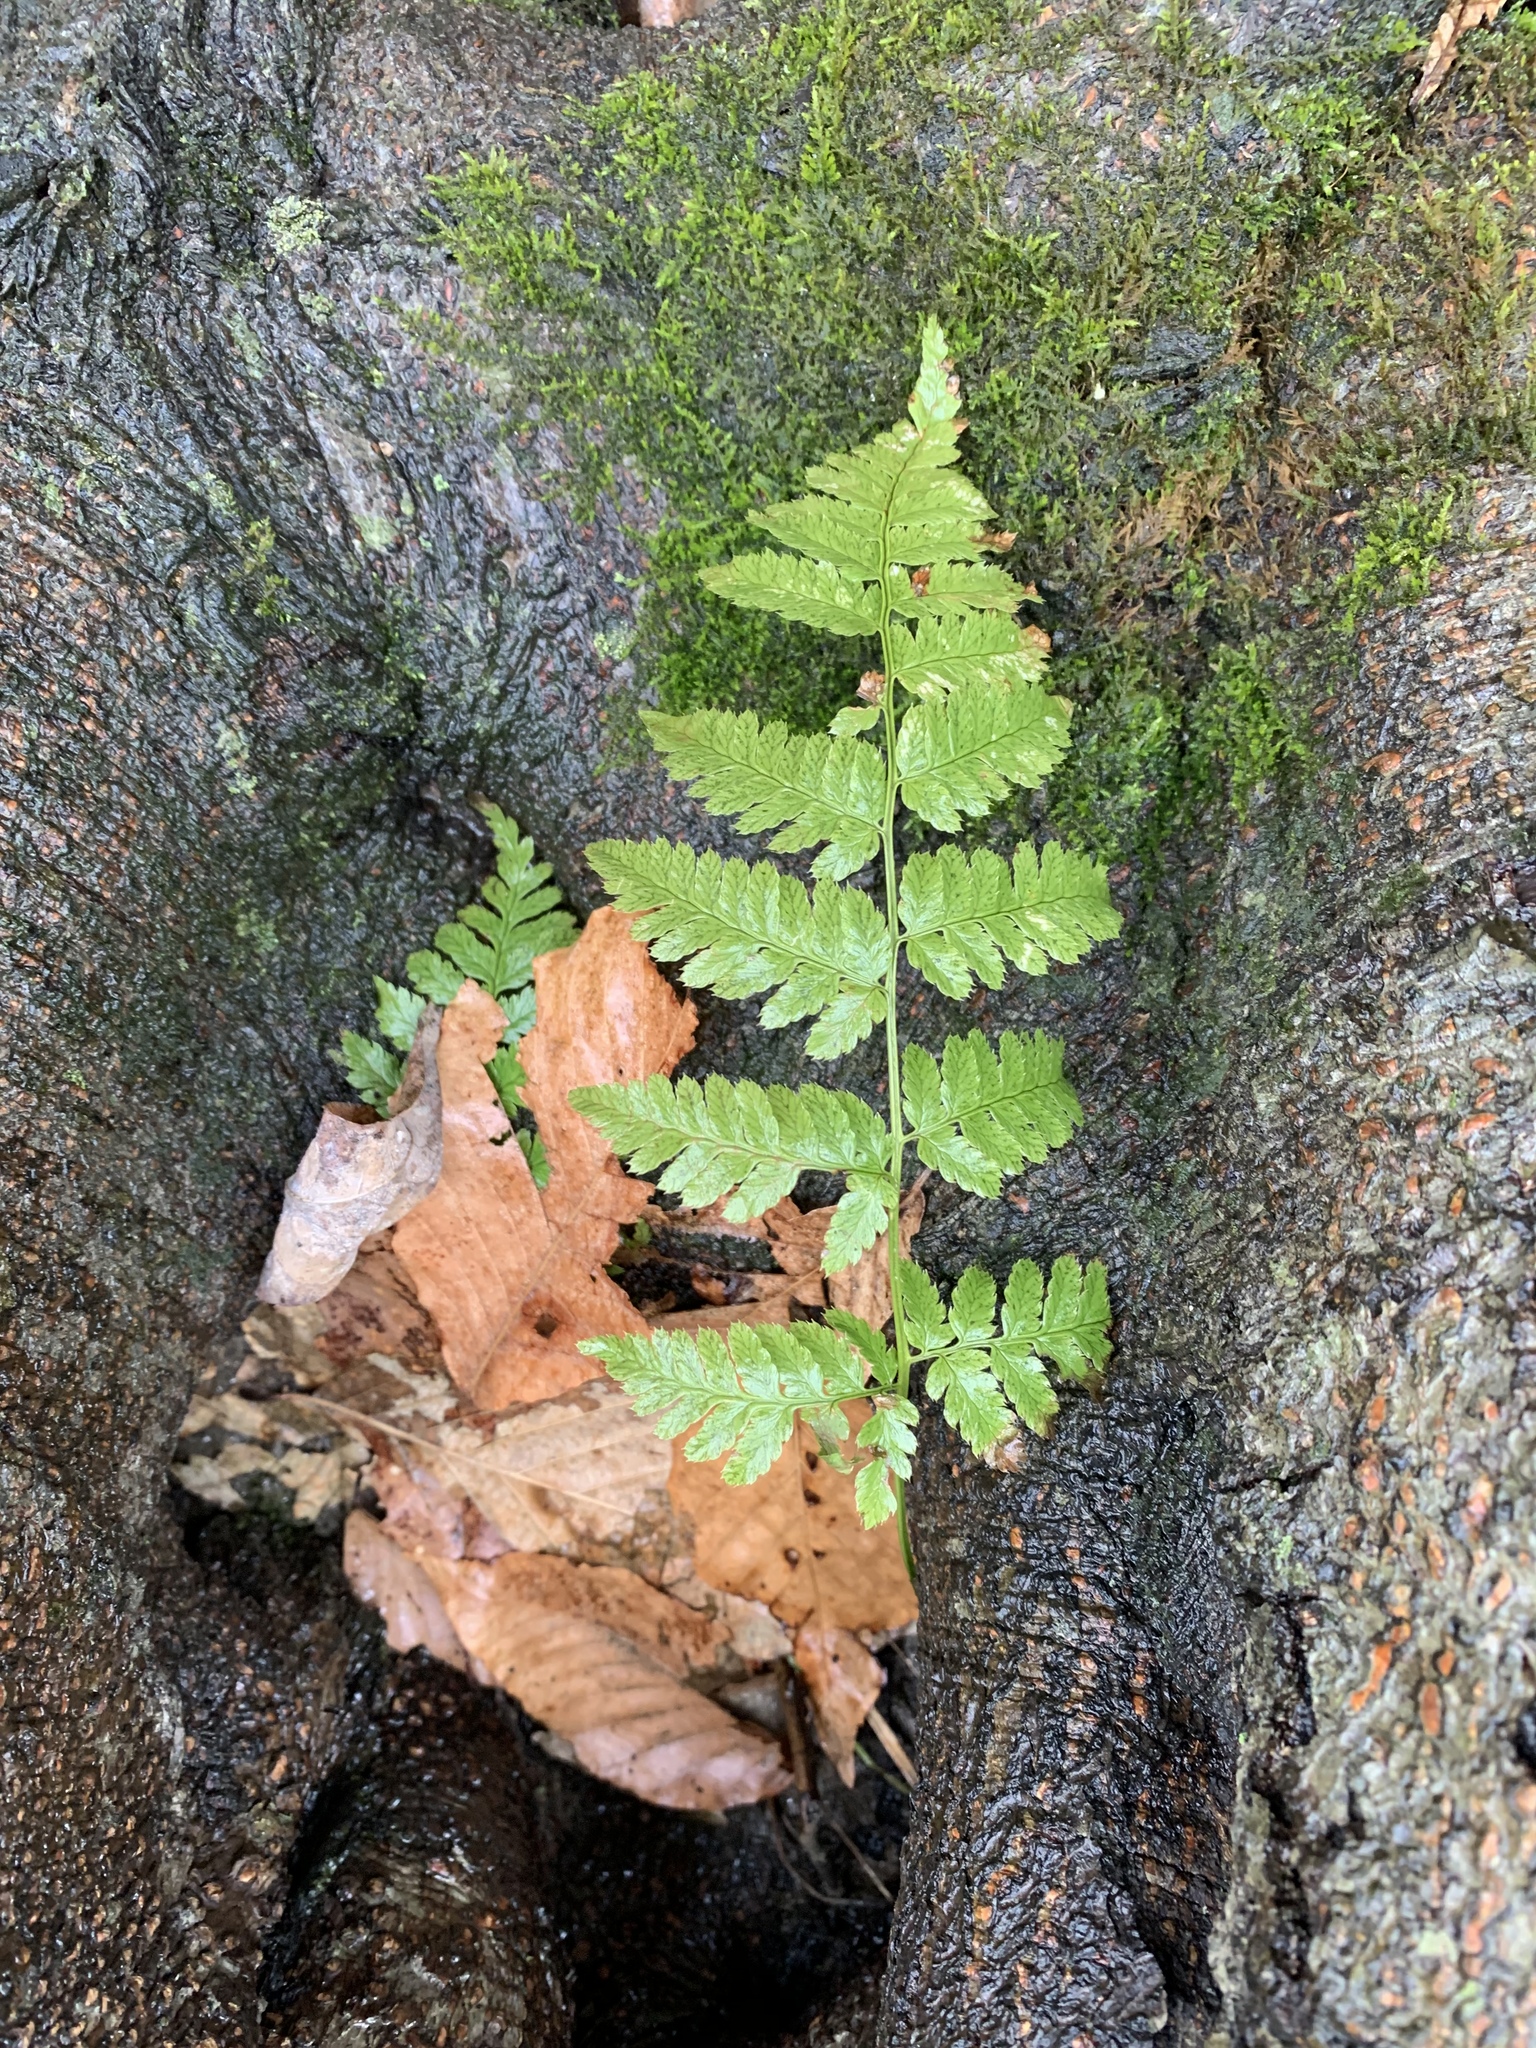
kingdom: Plantae
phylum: Tracheophyta
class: Polypodiopsida
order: Polypodiales
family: Dryopteridaceae
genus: Dryopteris
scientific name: Dryopteris intermedia
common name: Evergreen wood fern
